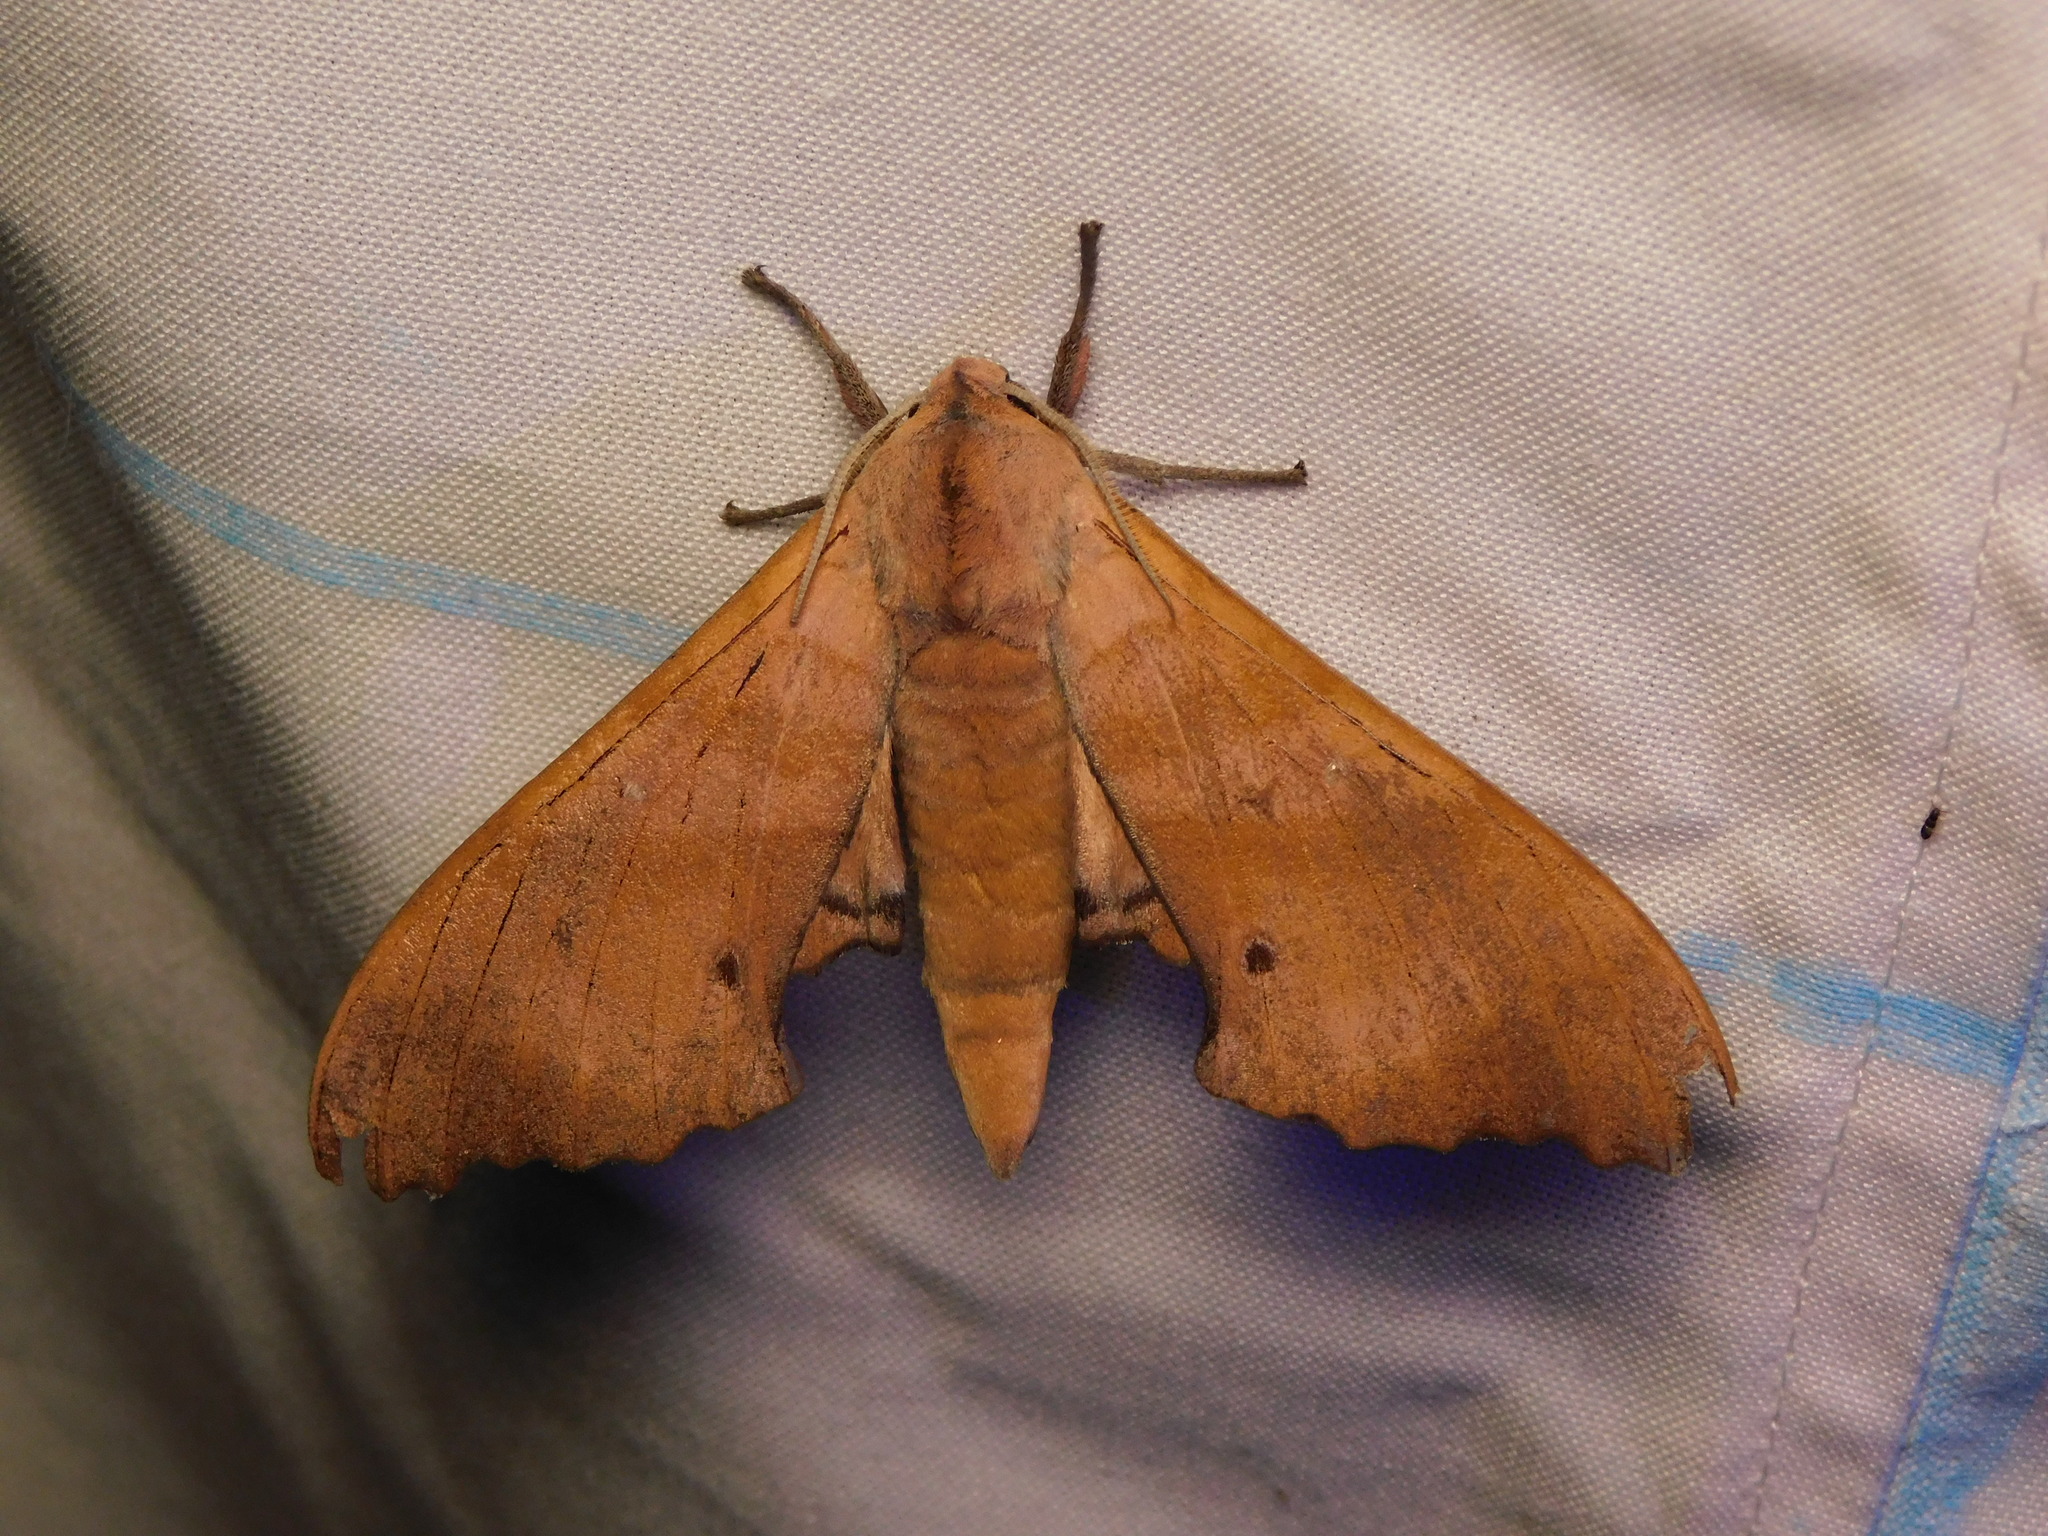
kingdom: Animalia
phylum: Arthropoda
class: Insecta
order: Lepidoptera
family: Sphingidae
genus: Marumba
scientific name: Marumba nympha
